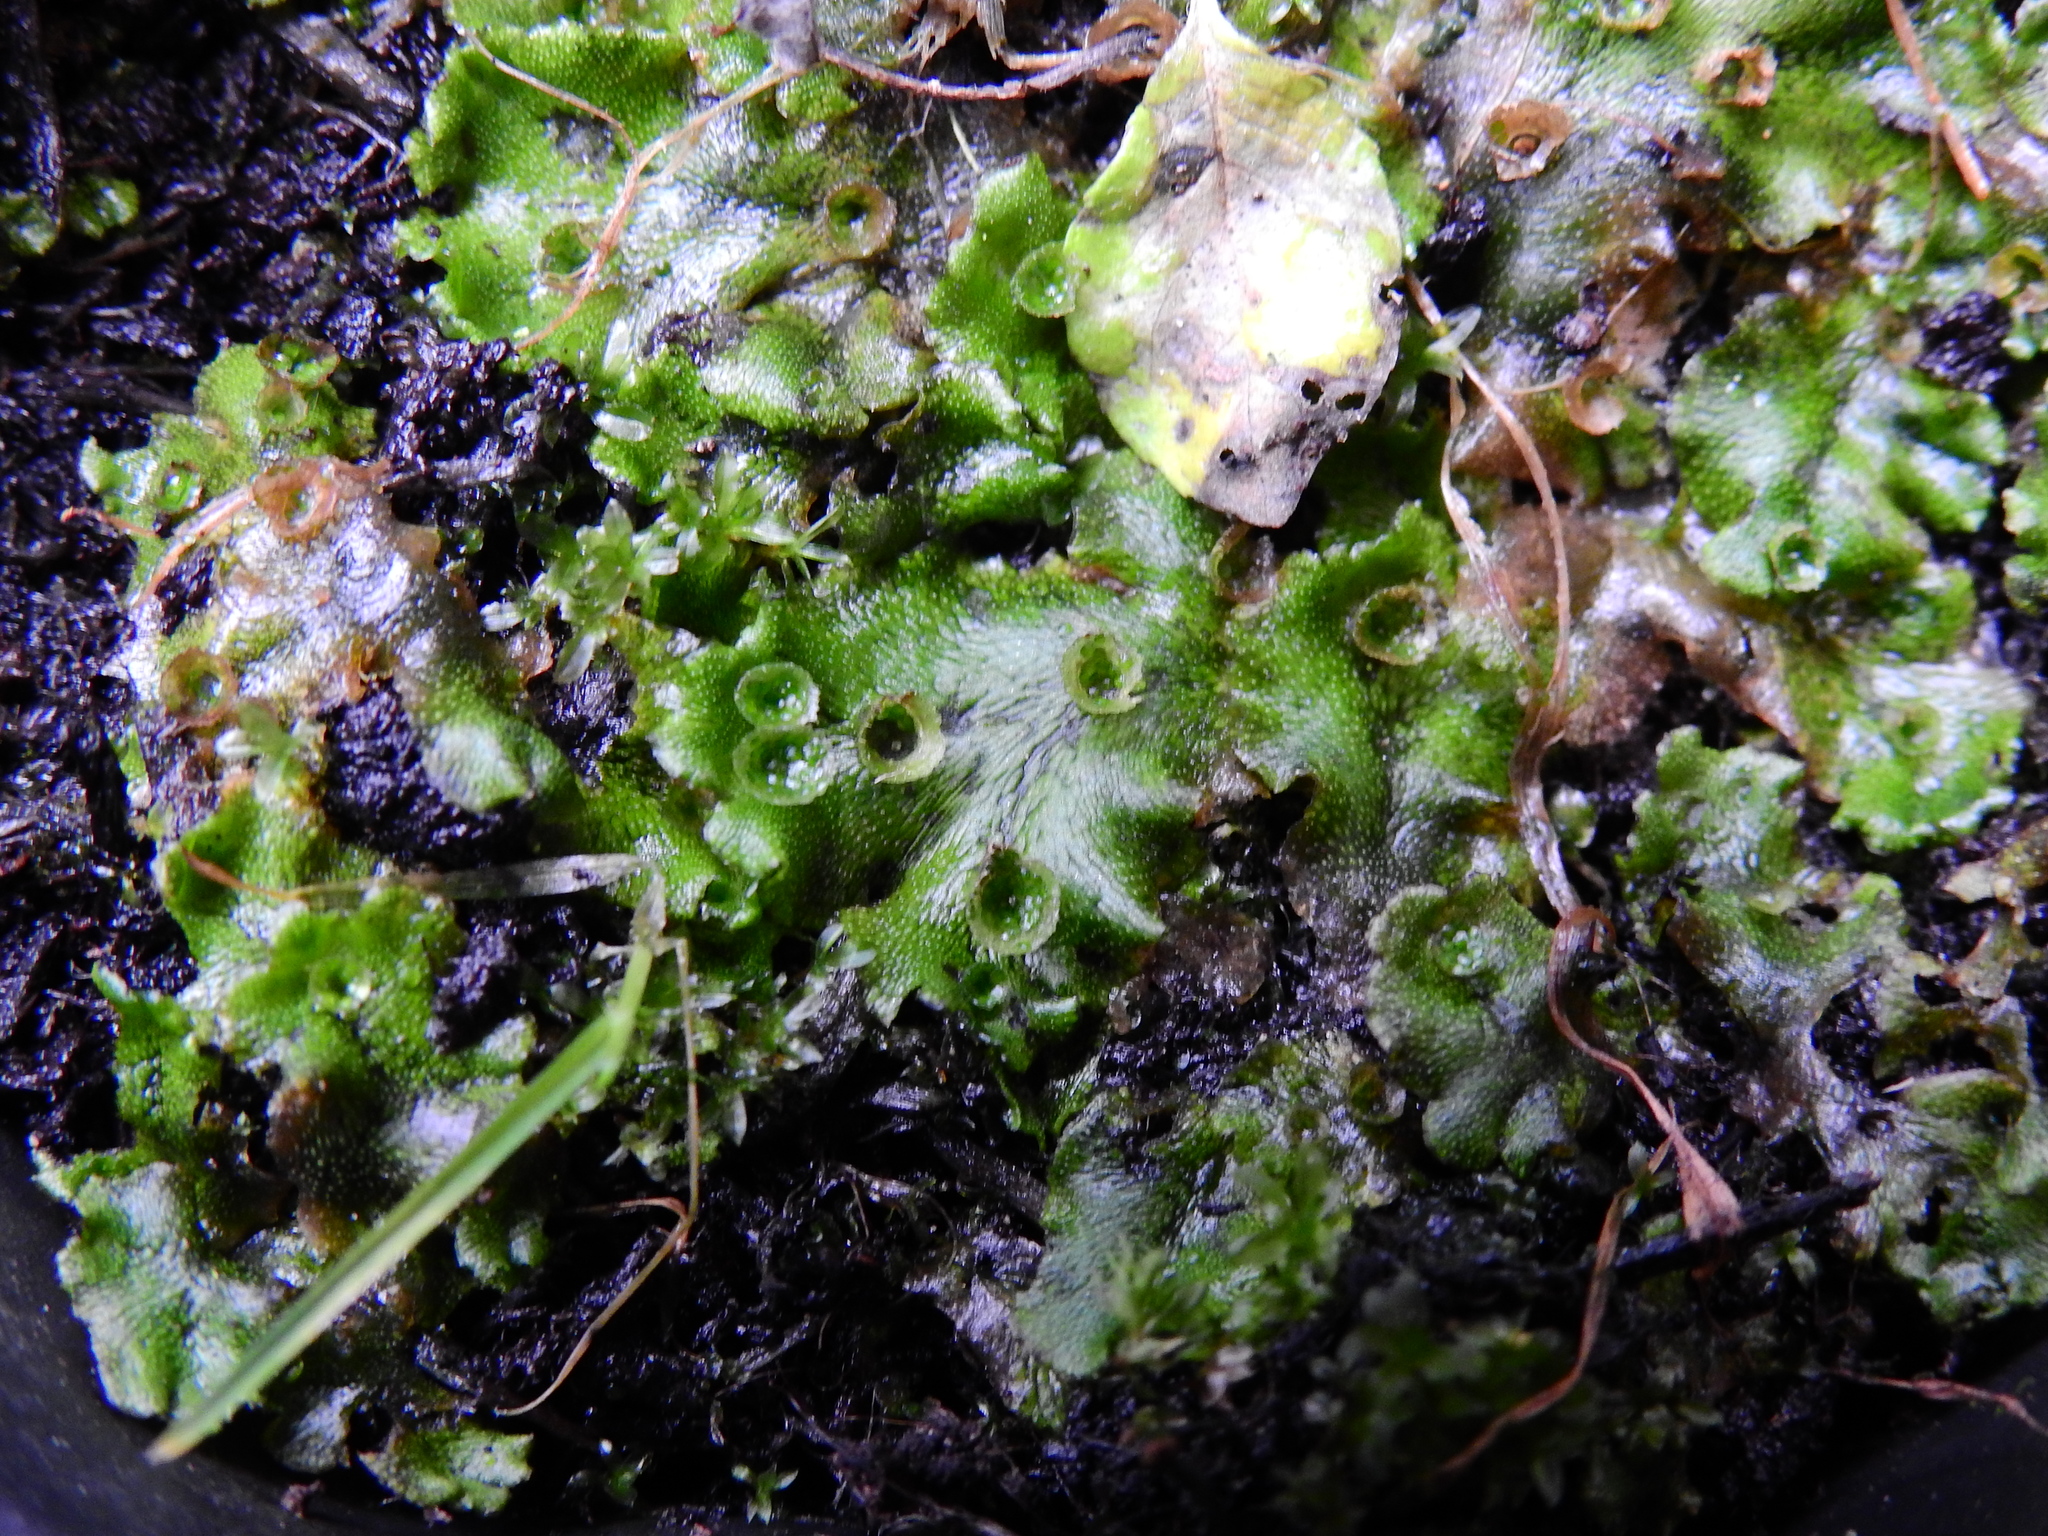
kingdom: Plantae
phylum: Marchantiophyta
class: Marchantiopsida
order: Marchantiales
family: Marchantiaceae
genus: Marchantia
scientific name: Marchantia polymorpha
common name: Common liverwort
